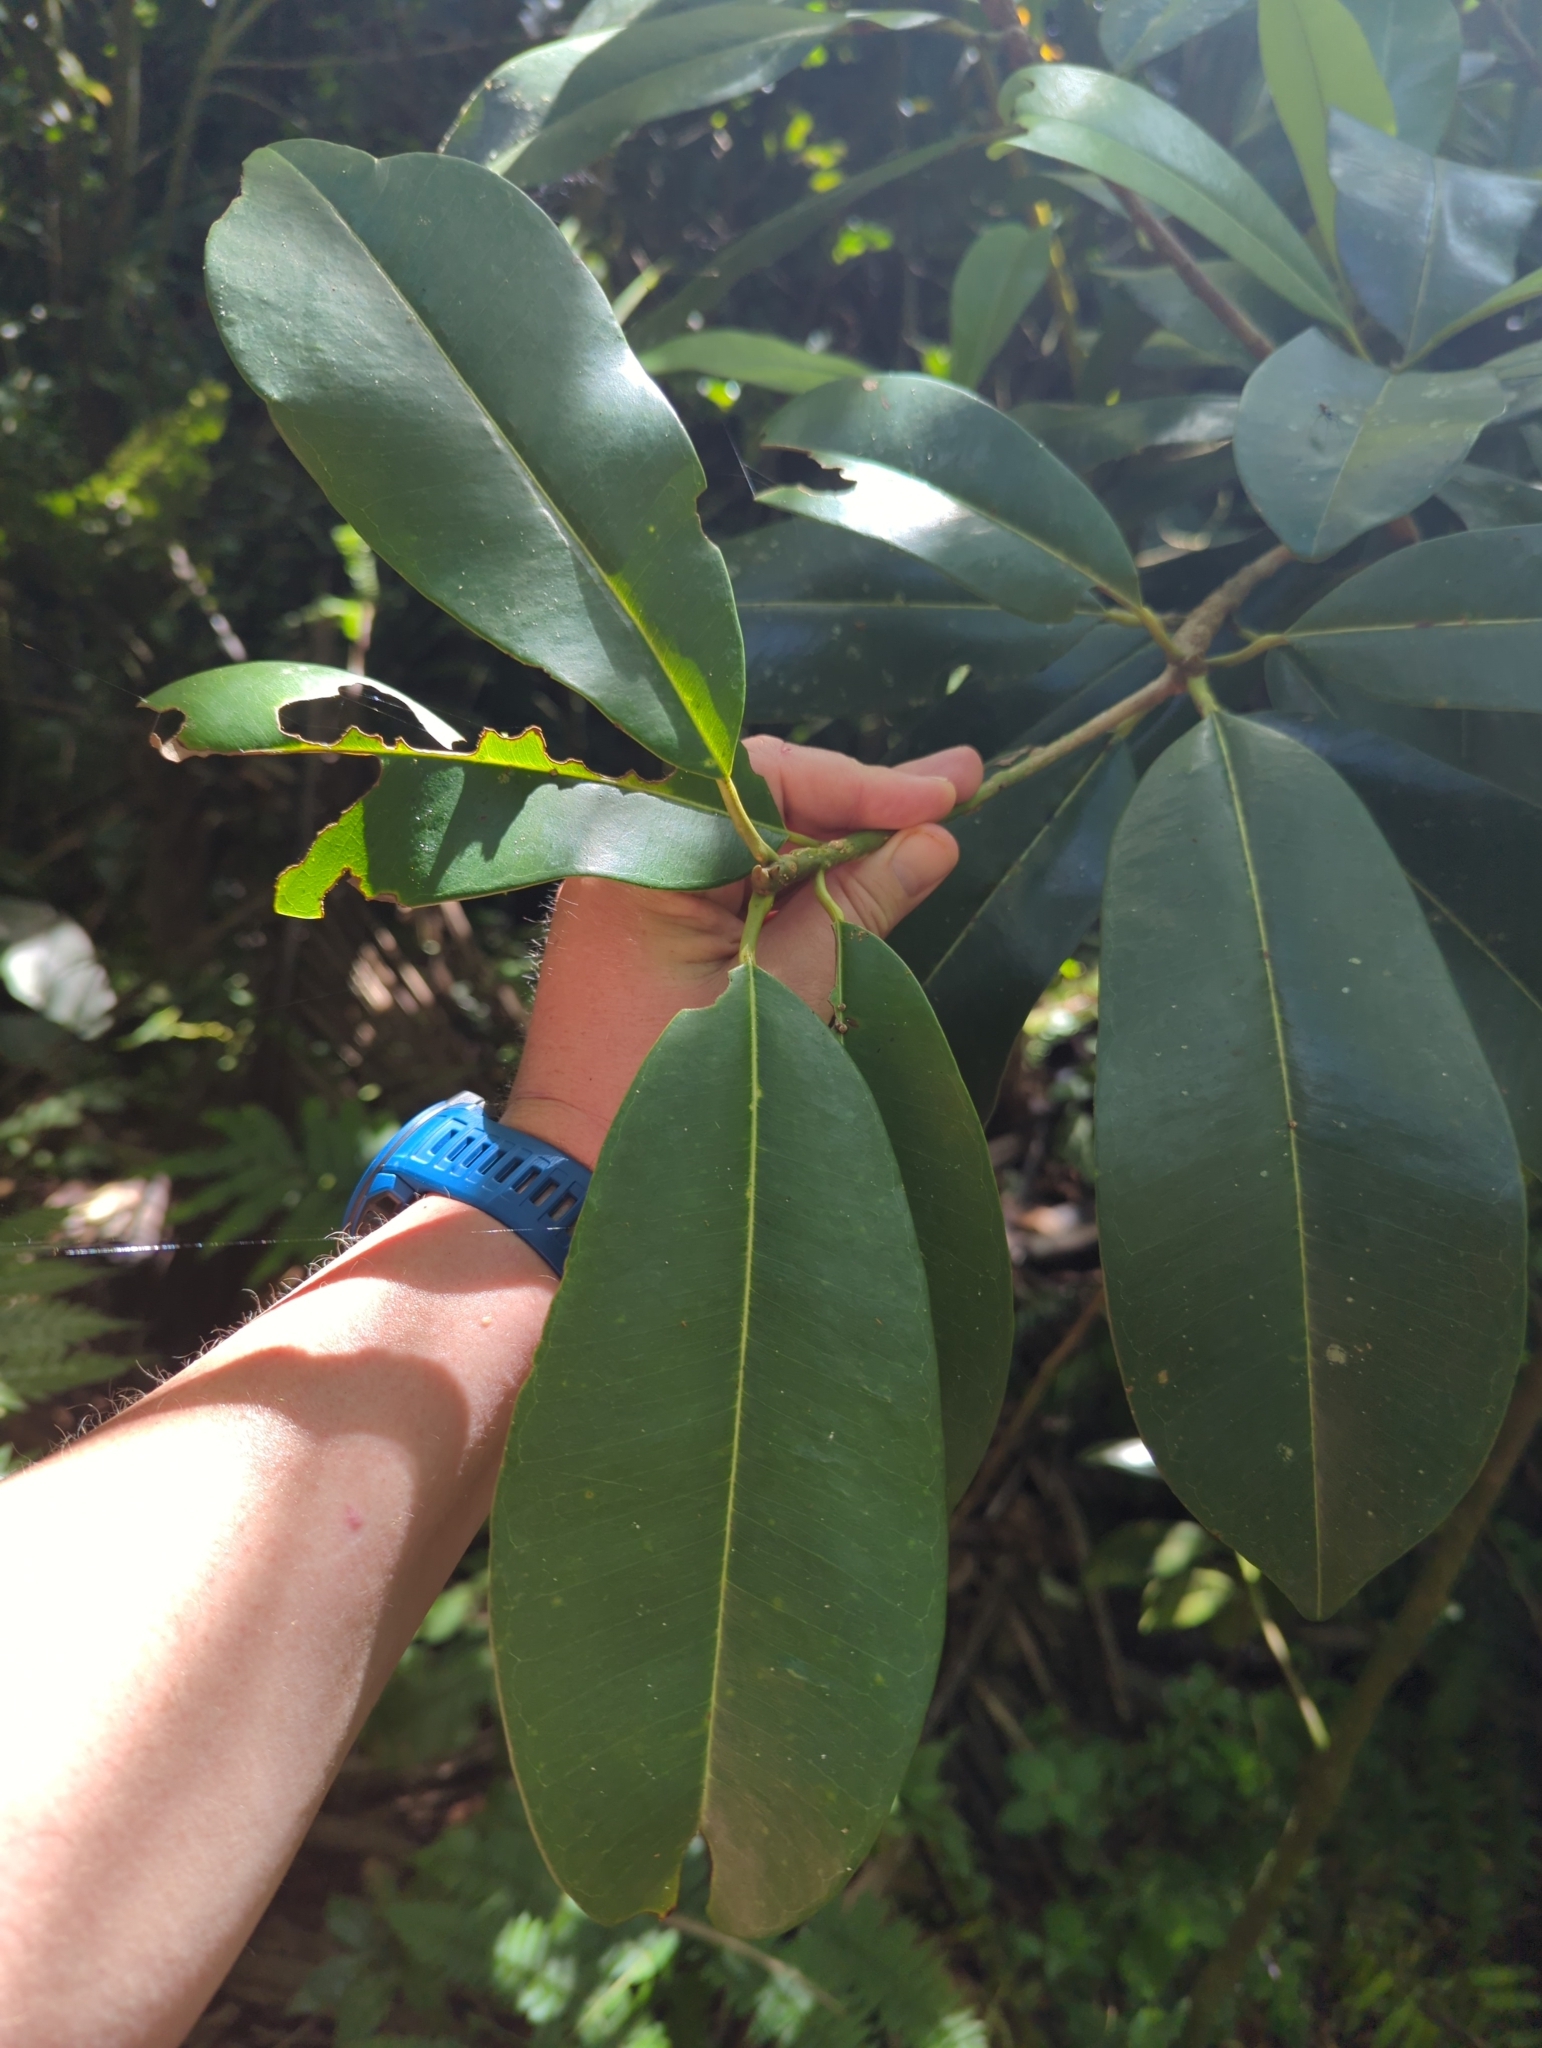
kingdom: Plantae
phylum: Tracheophyta
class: Magnoliopsida
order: Ericales
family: Sapotaceae
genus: Manilkara
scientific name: Manilkara bidentata
